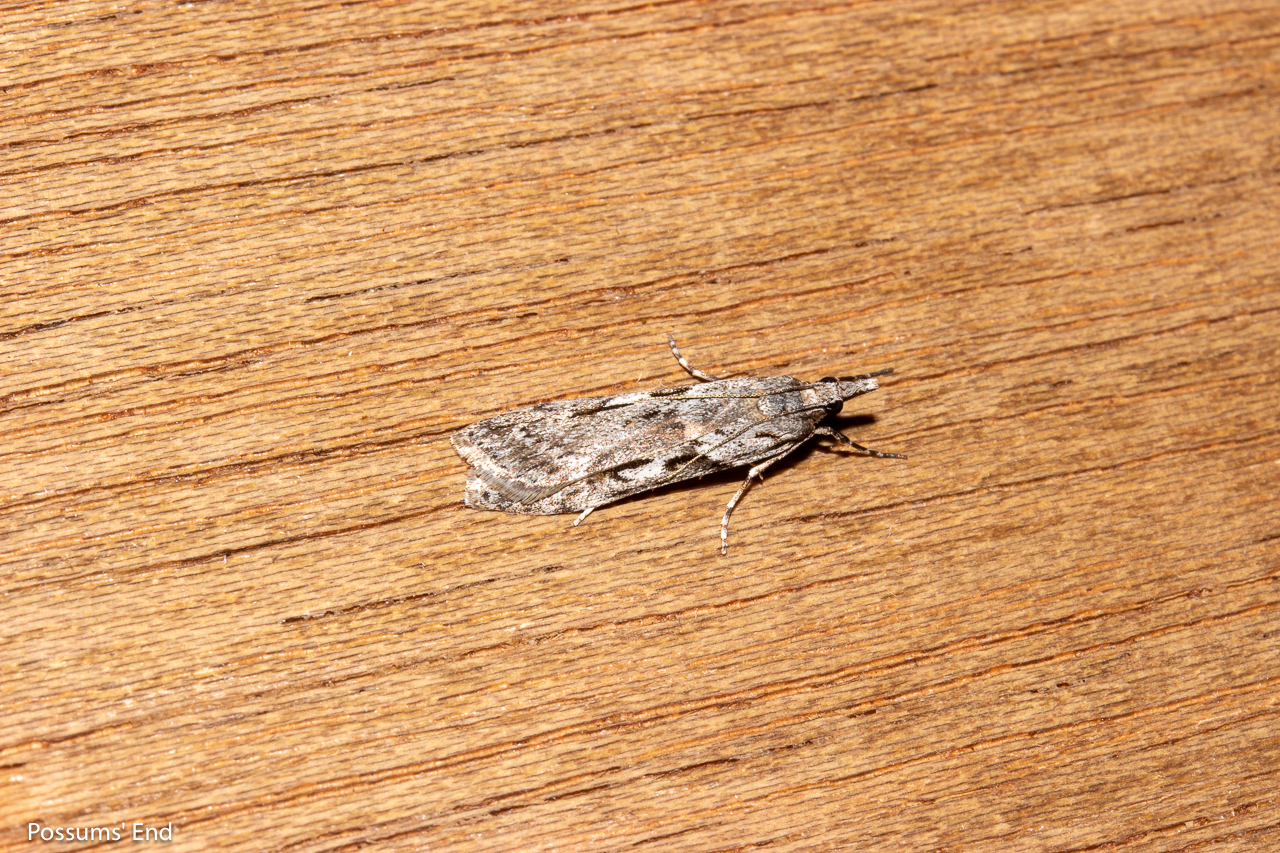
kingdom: Animalia
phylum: Arthropoda
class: Insecta
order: Lepidoptera
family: Crambidae
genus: Scoparia
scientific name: Scoparia halopis
